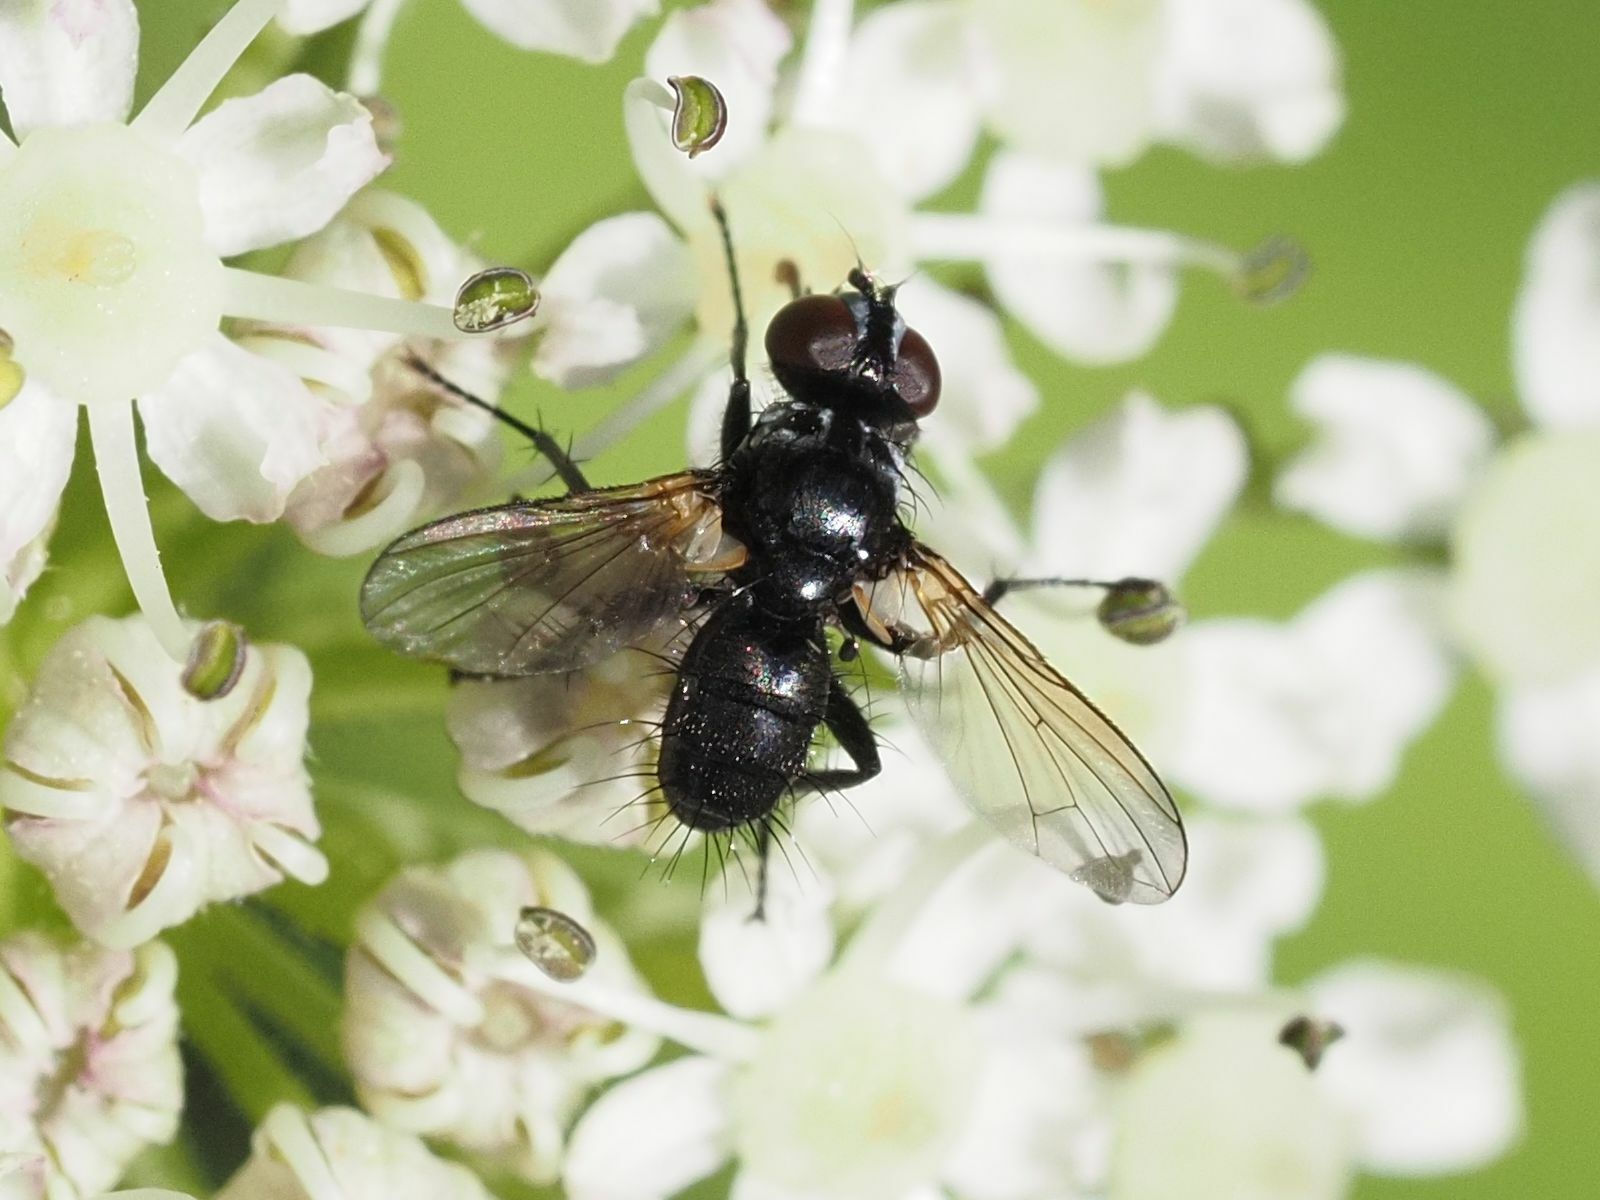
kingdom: Animalia
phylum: Arthropoda
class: Insecta
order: Diptera
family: Tachinidae
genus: Phania
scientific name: Phania funesta
